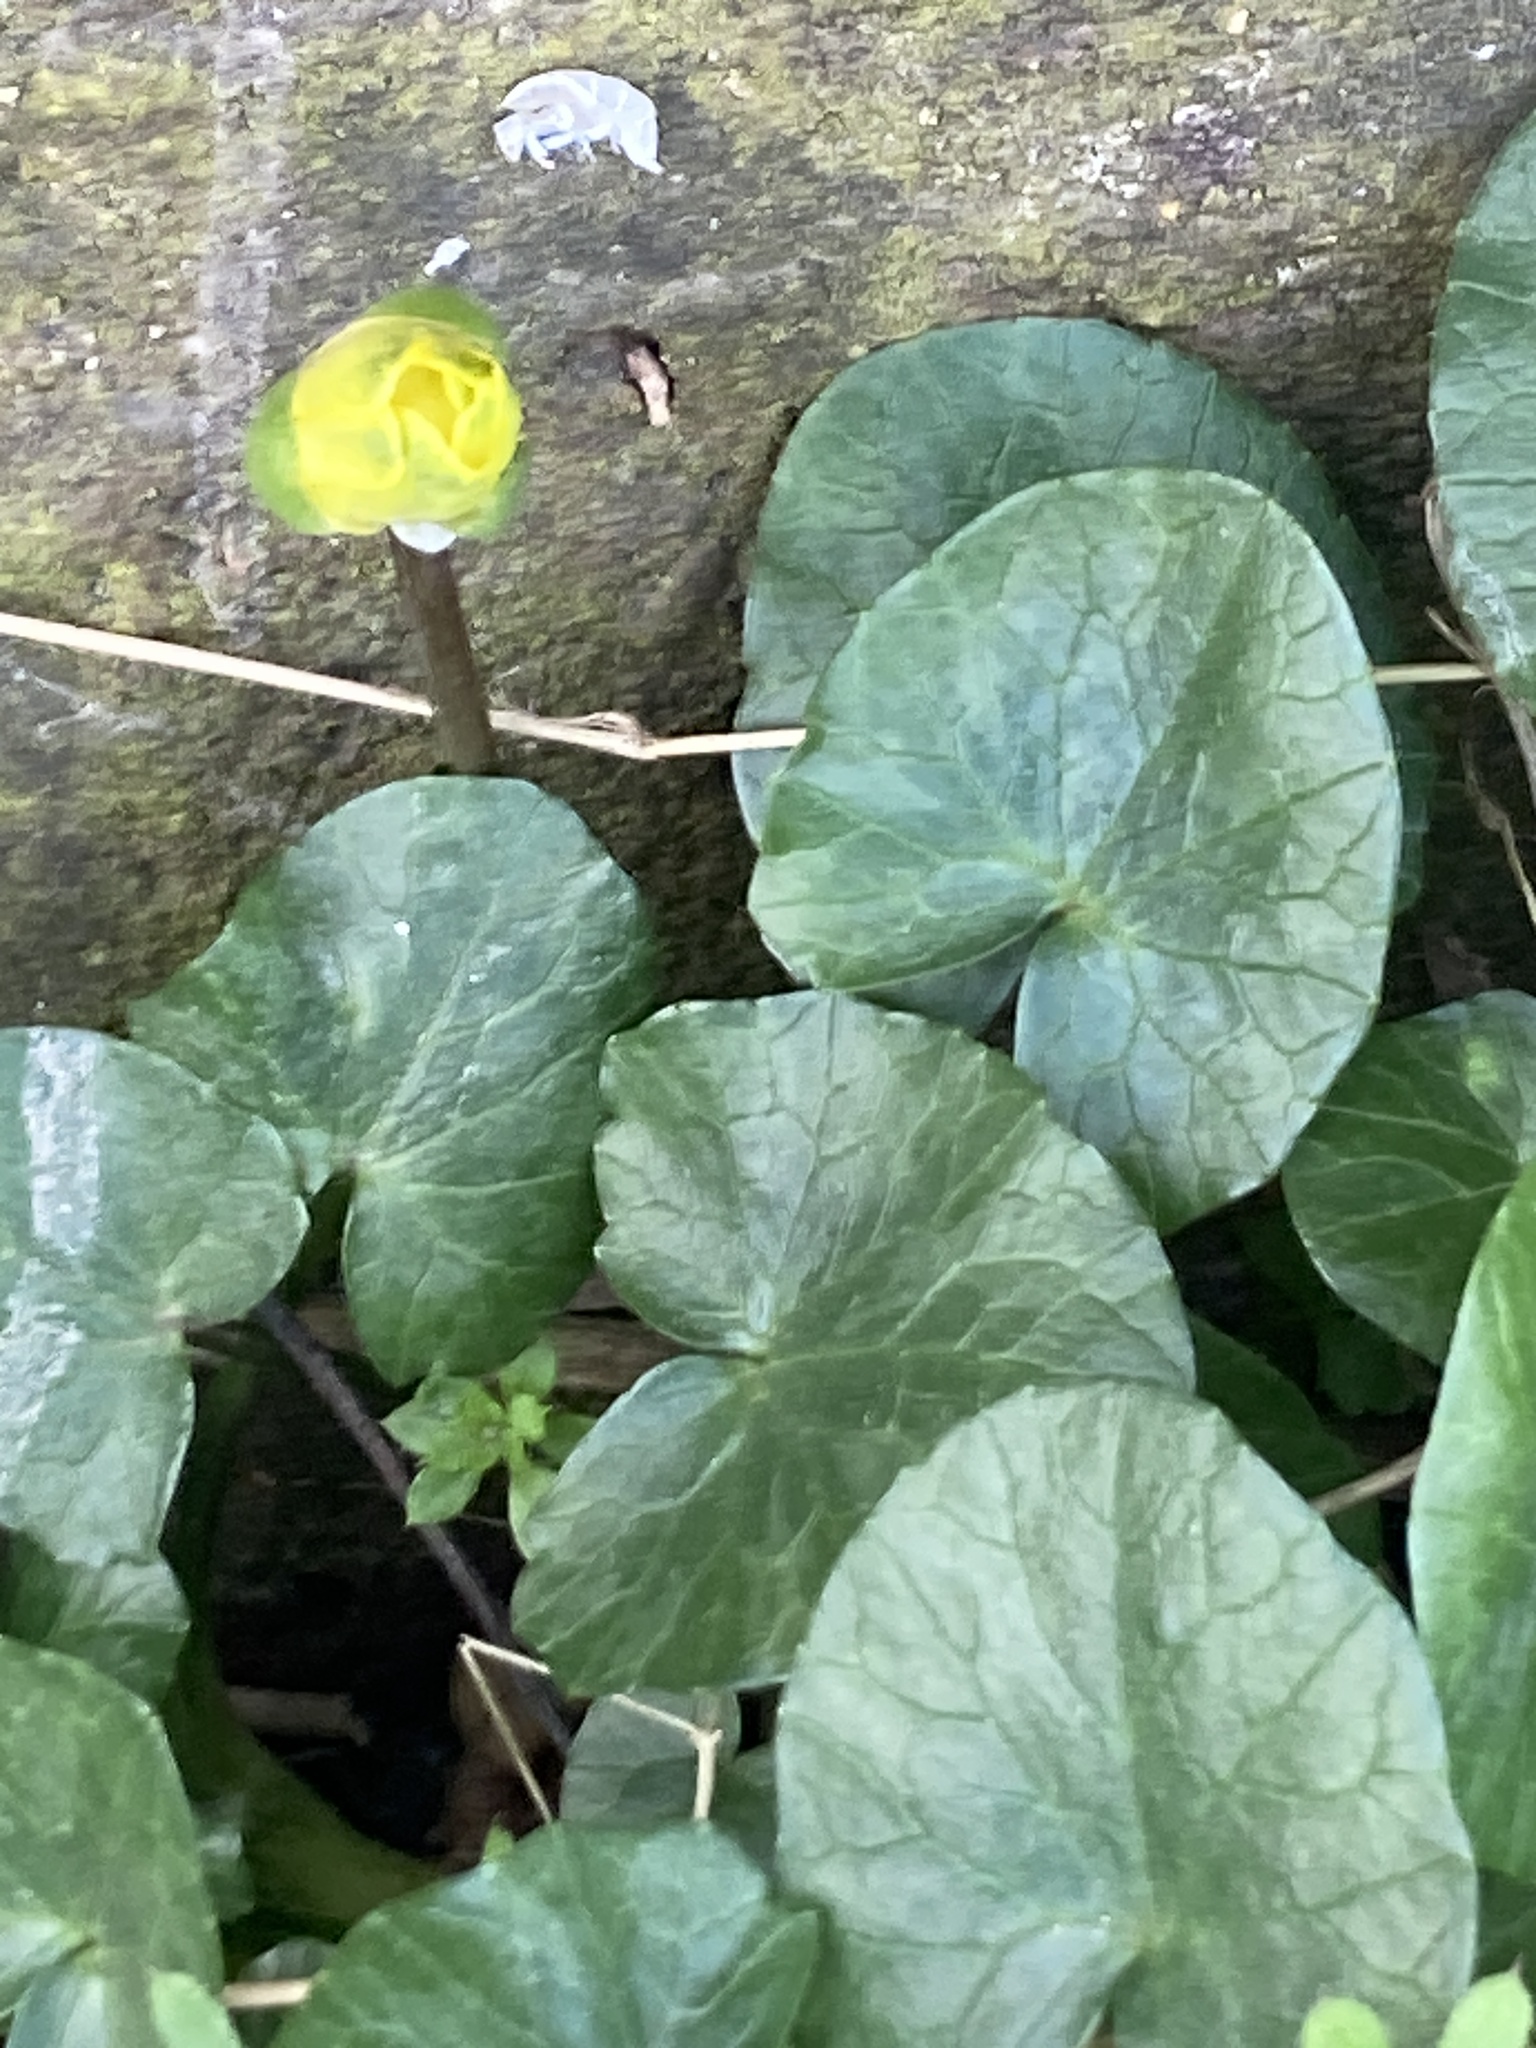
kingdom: Plantae
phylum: Tracheophyta
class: Magnoliopsida
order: Ranunculales
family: Ranunculaceae
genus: Ficaria
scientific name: Ficaria verna
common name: Lesser celandine
